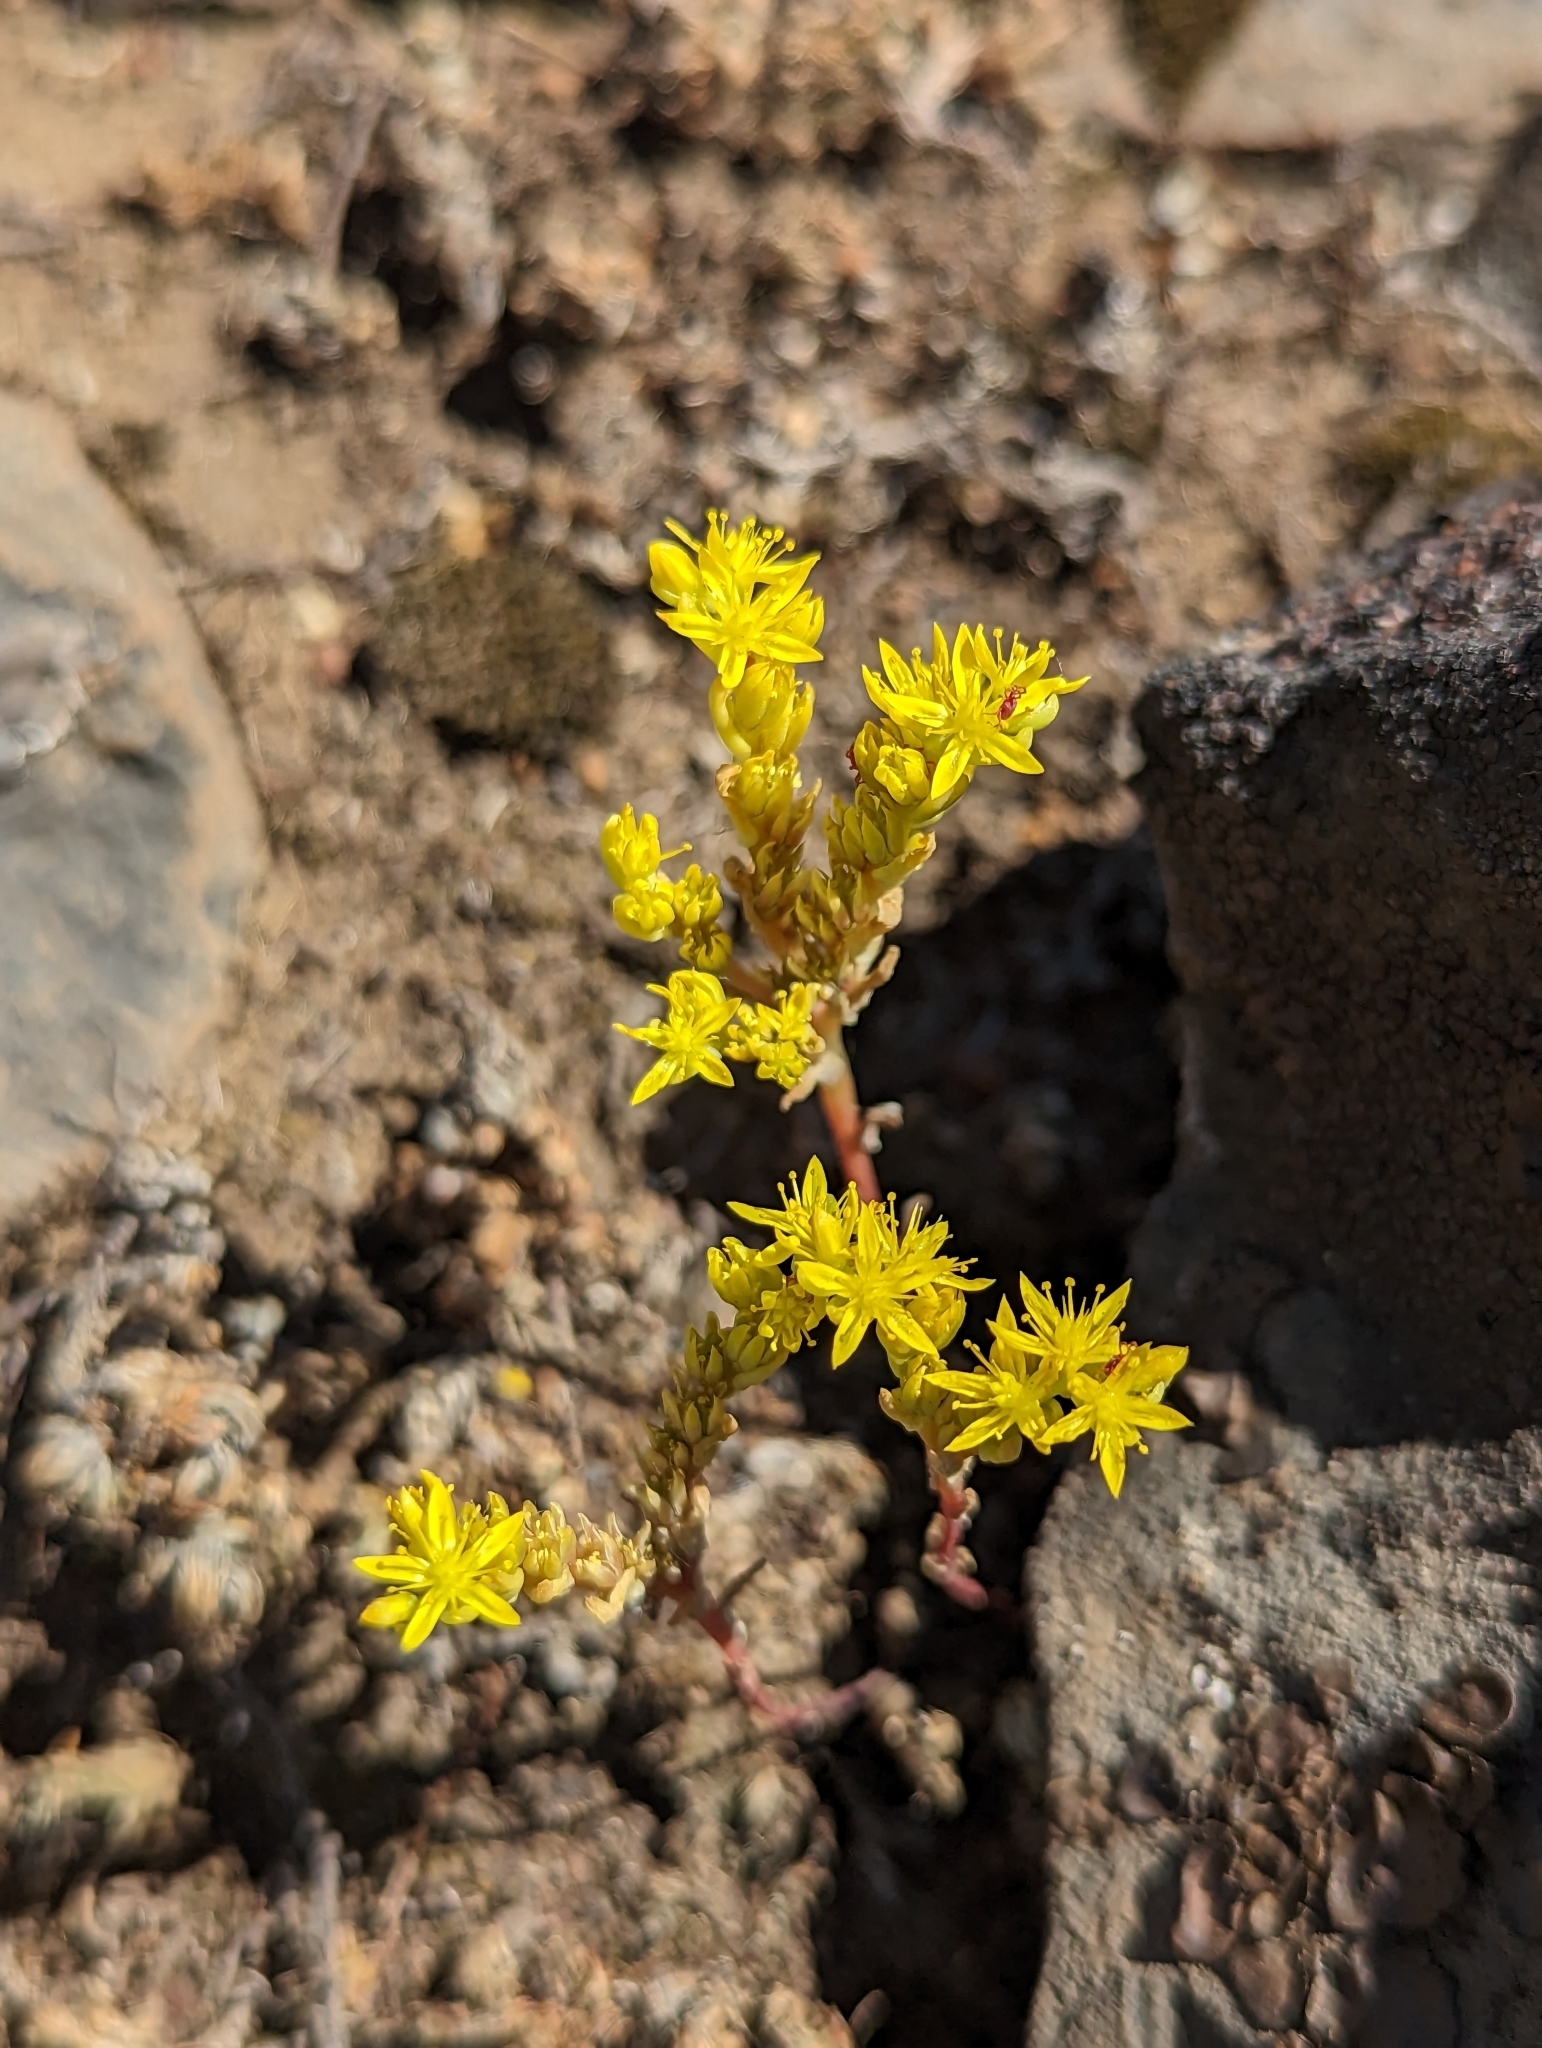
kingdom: Plantae
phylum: Tracheophyta
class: Magnoliopsida
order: Saxifragales
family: Crassulaceae
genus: Sedella
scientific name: Sedella pumila
